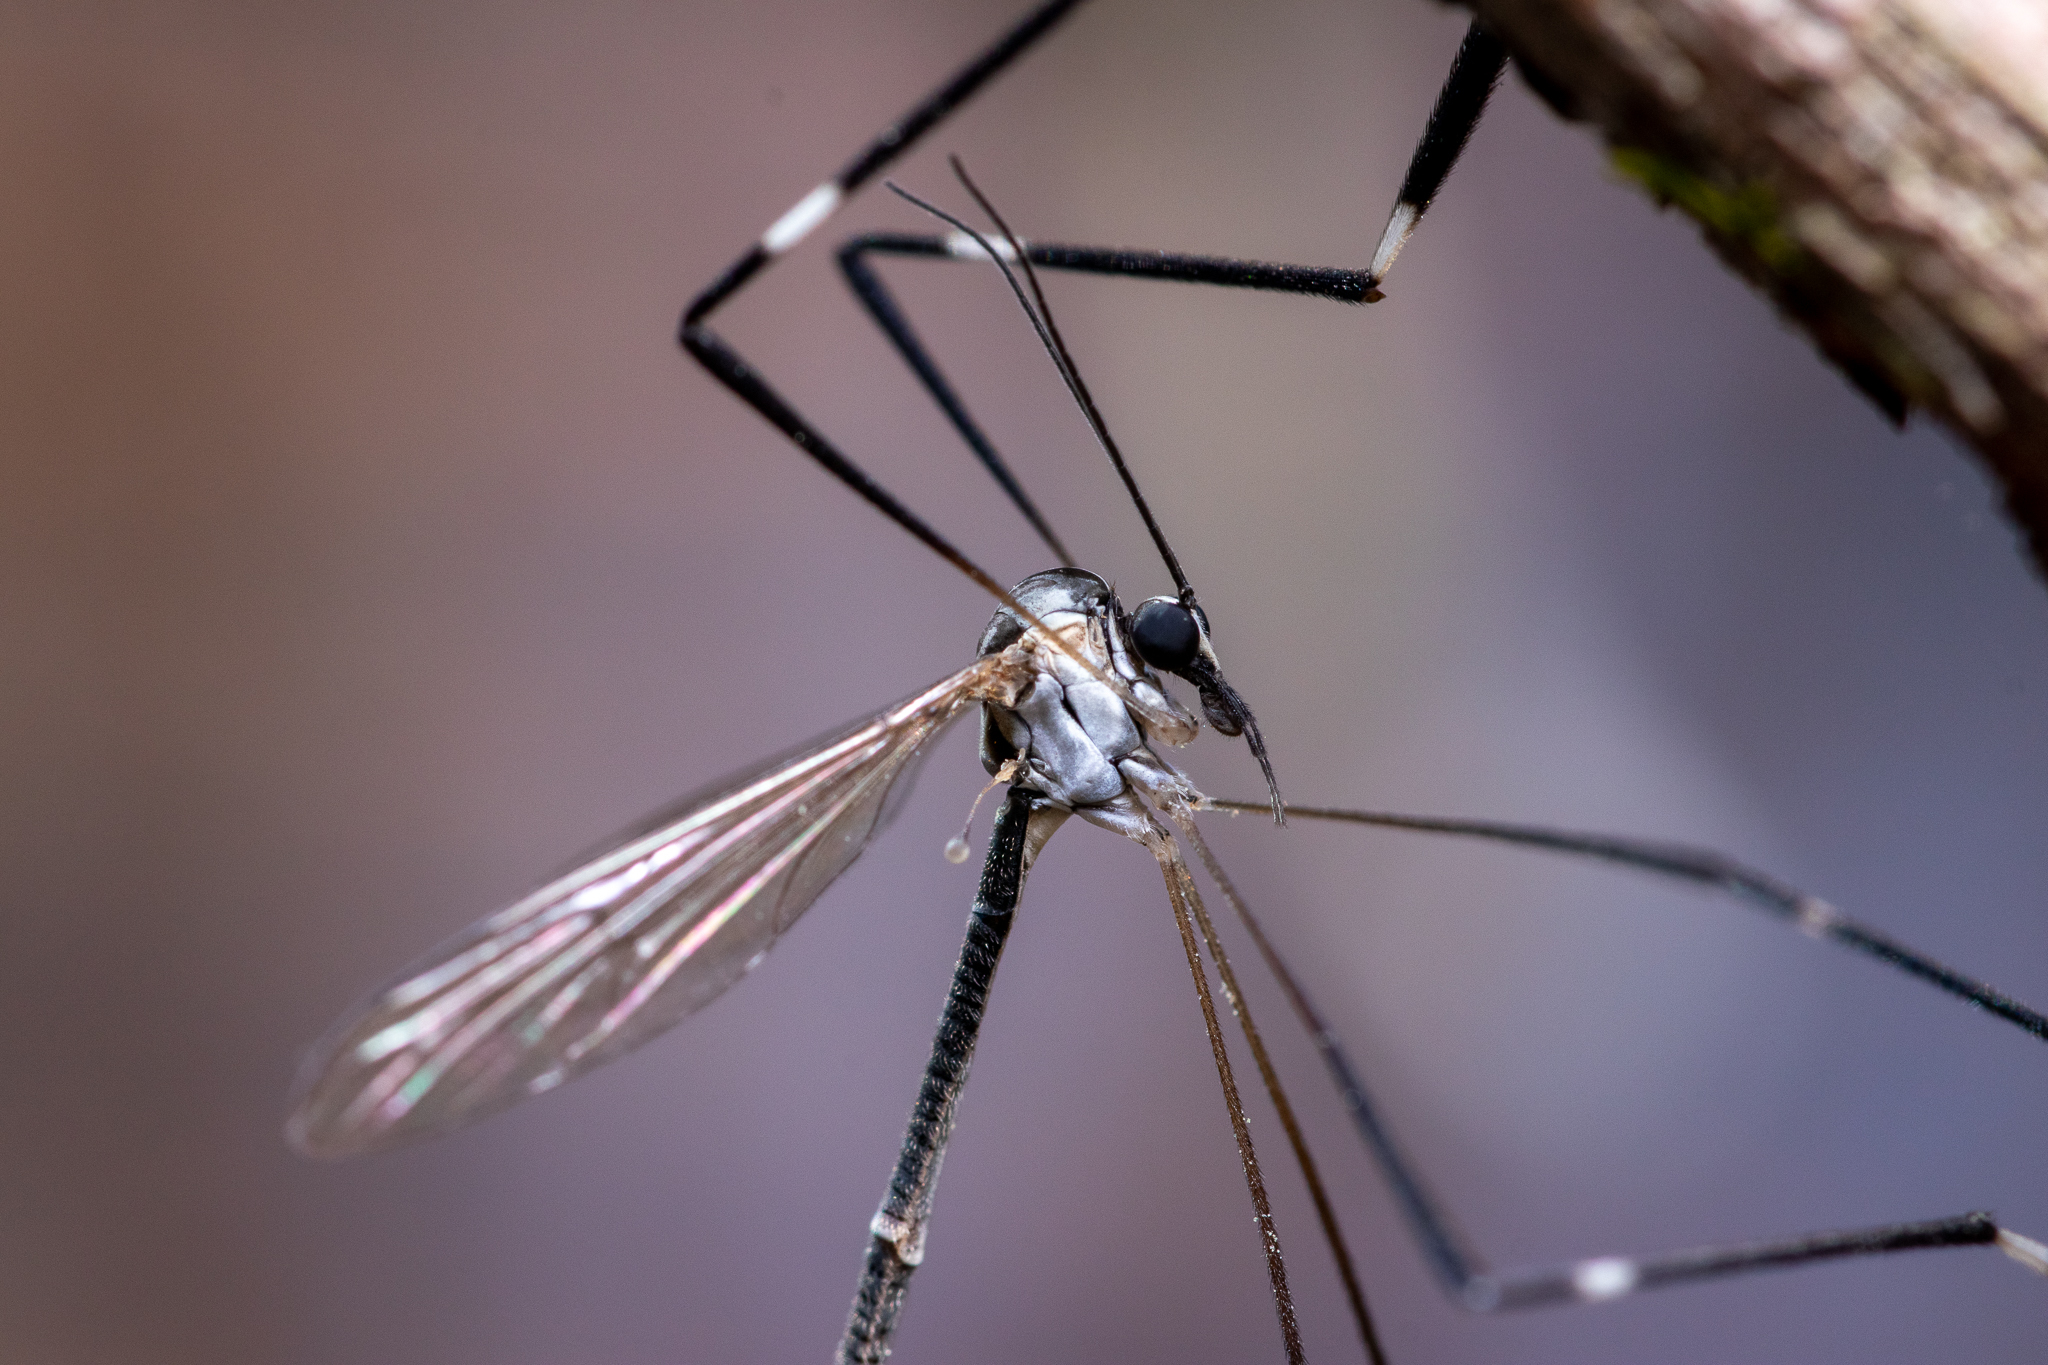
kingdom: Animalia
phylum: Arthropoda
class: Insecta
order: Diptera
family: Ptychopteridae
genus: Bittacomorpha
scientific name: Bittacomorpha clavipes
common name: Eastern phantom crane fly
